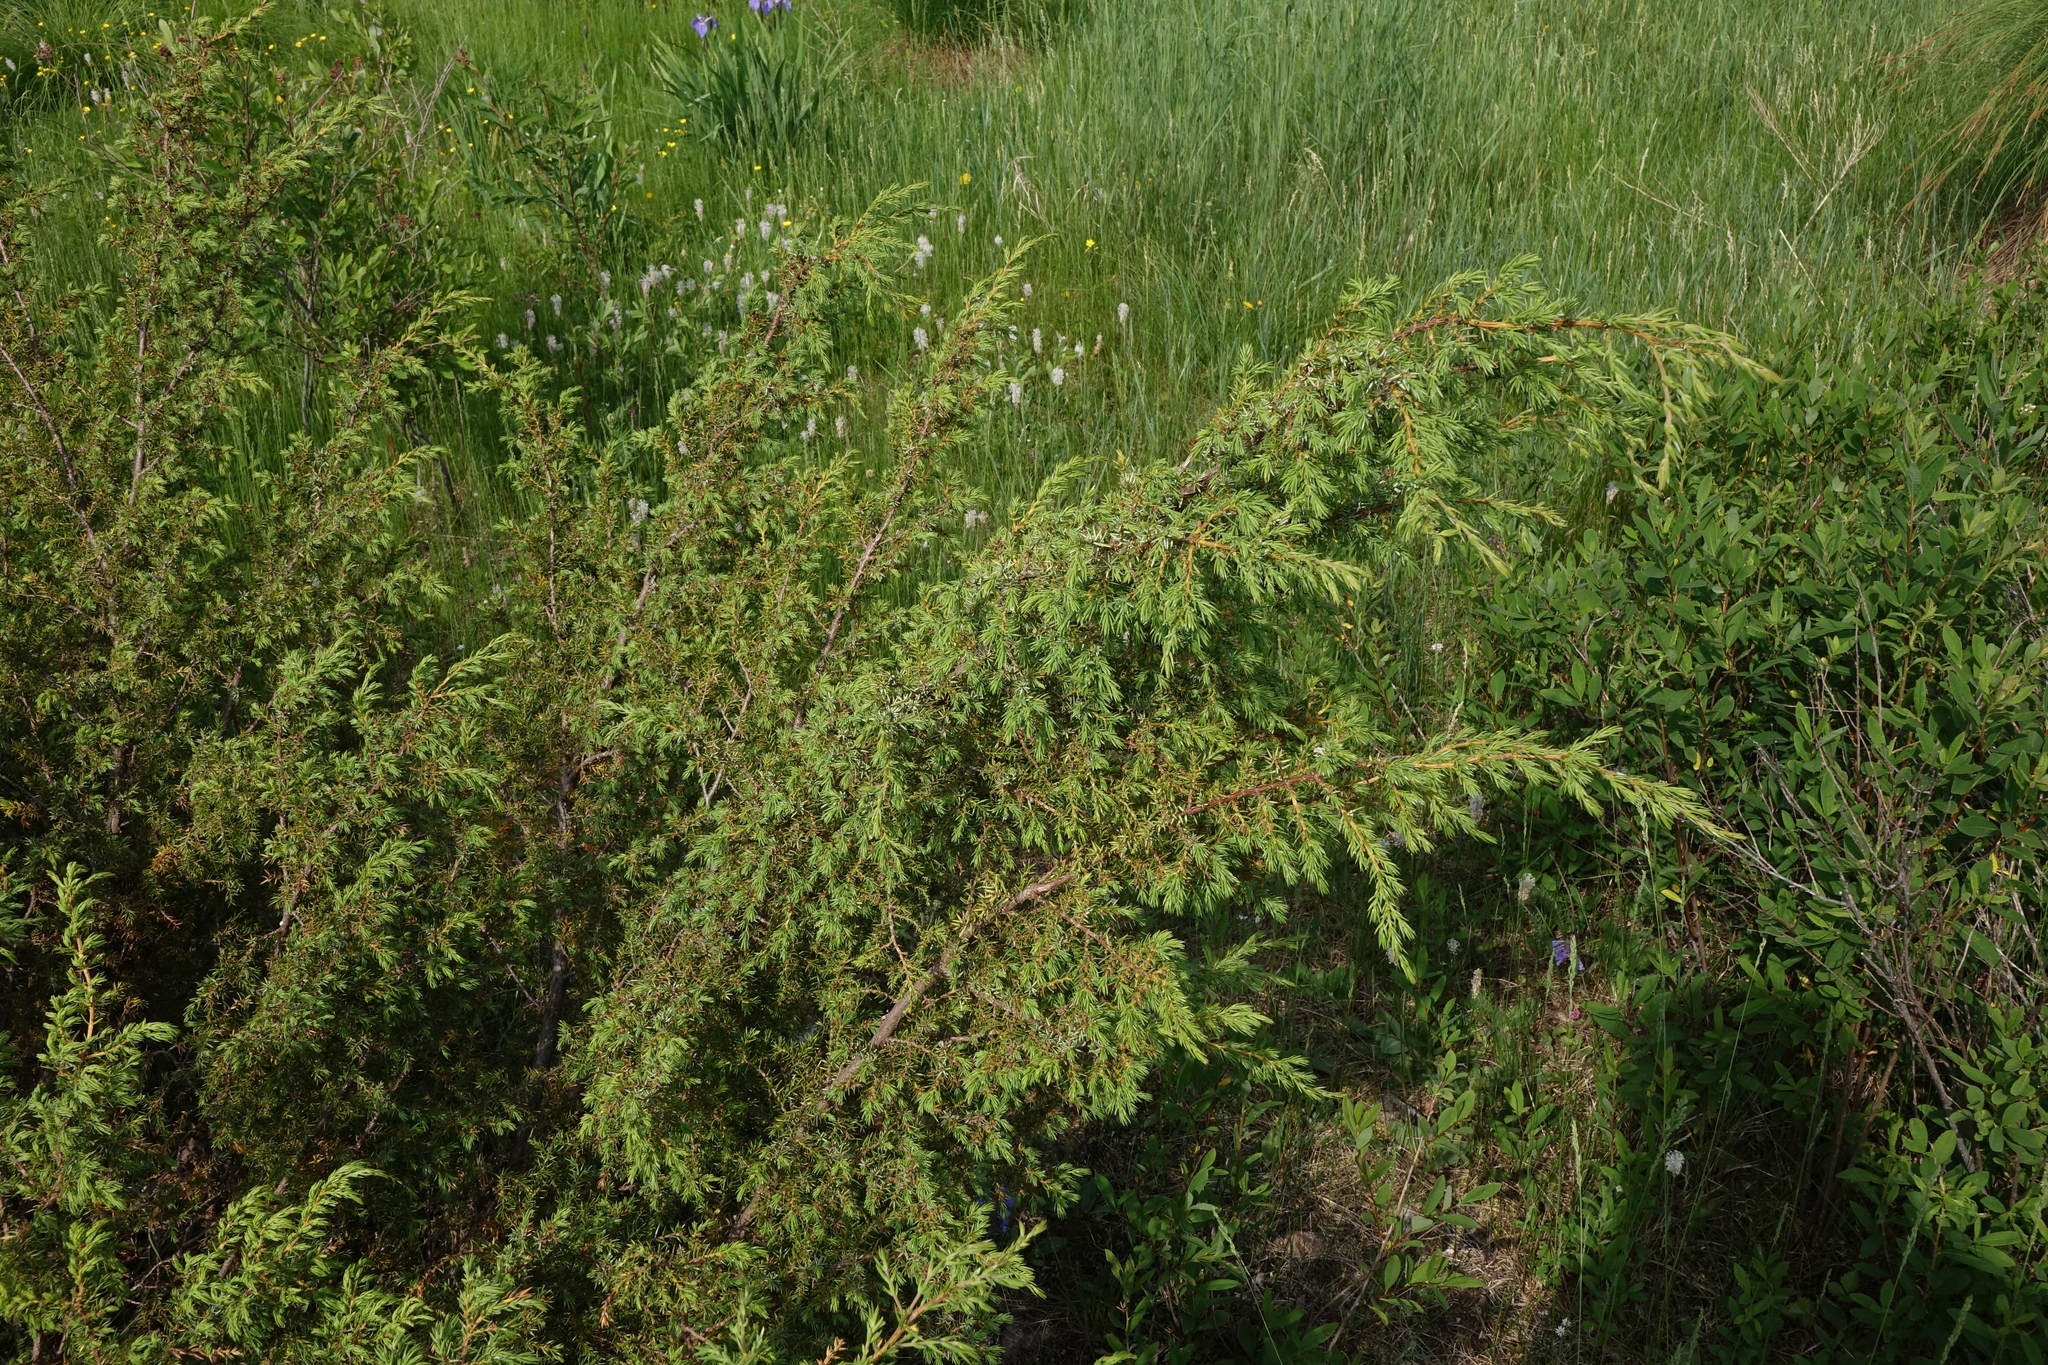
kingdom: Plantae
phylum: Tracheophyta
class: Pinopsida
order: Pinales
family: Cupressaceae
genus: Juniperus
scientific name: Juniperus communis
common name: Common juniper
